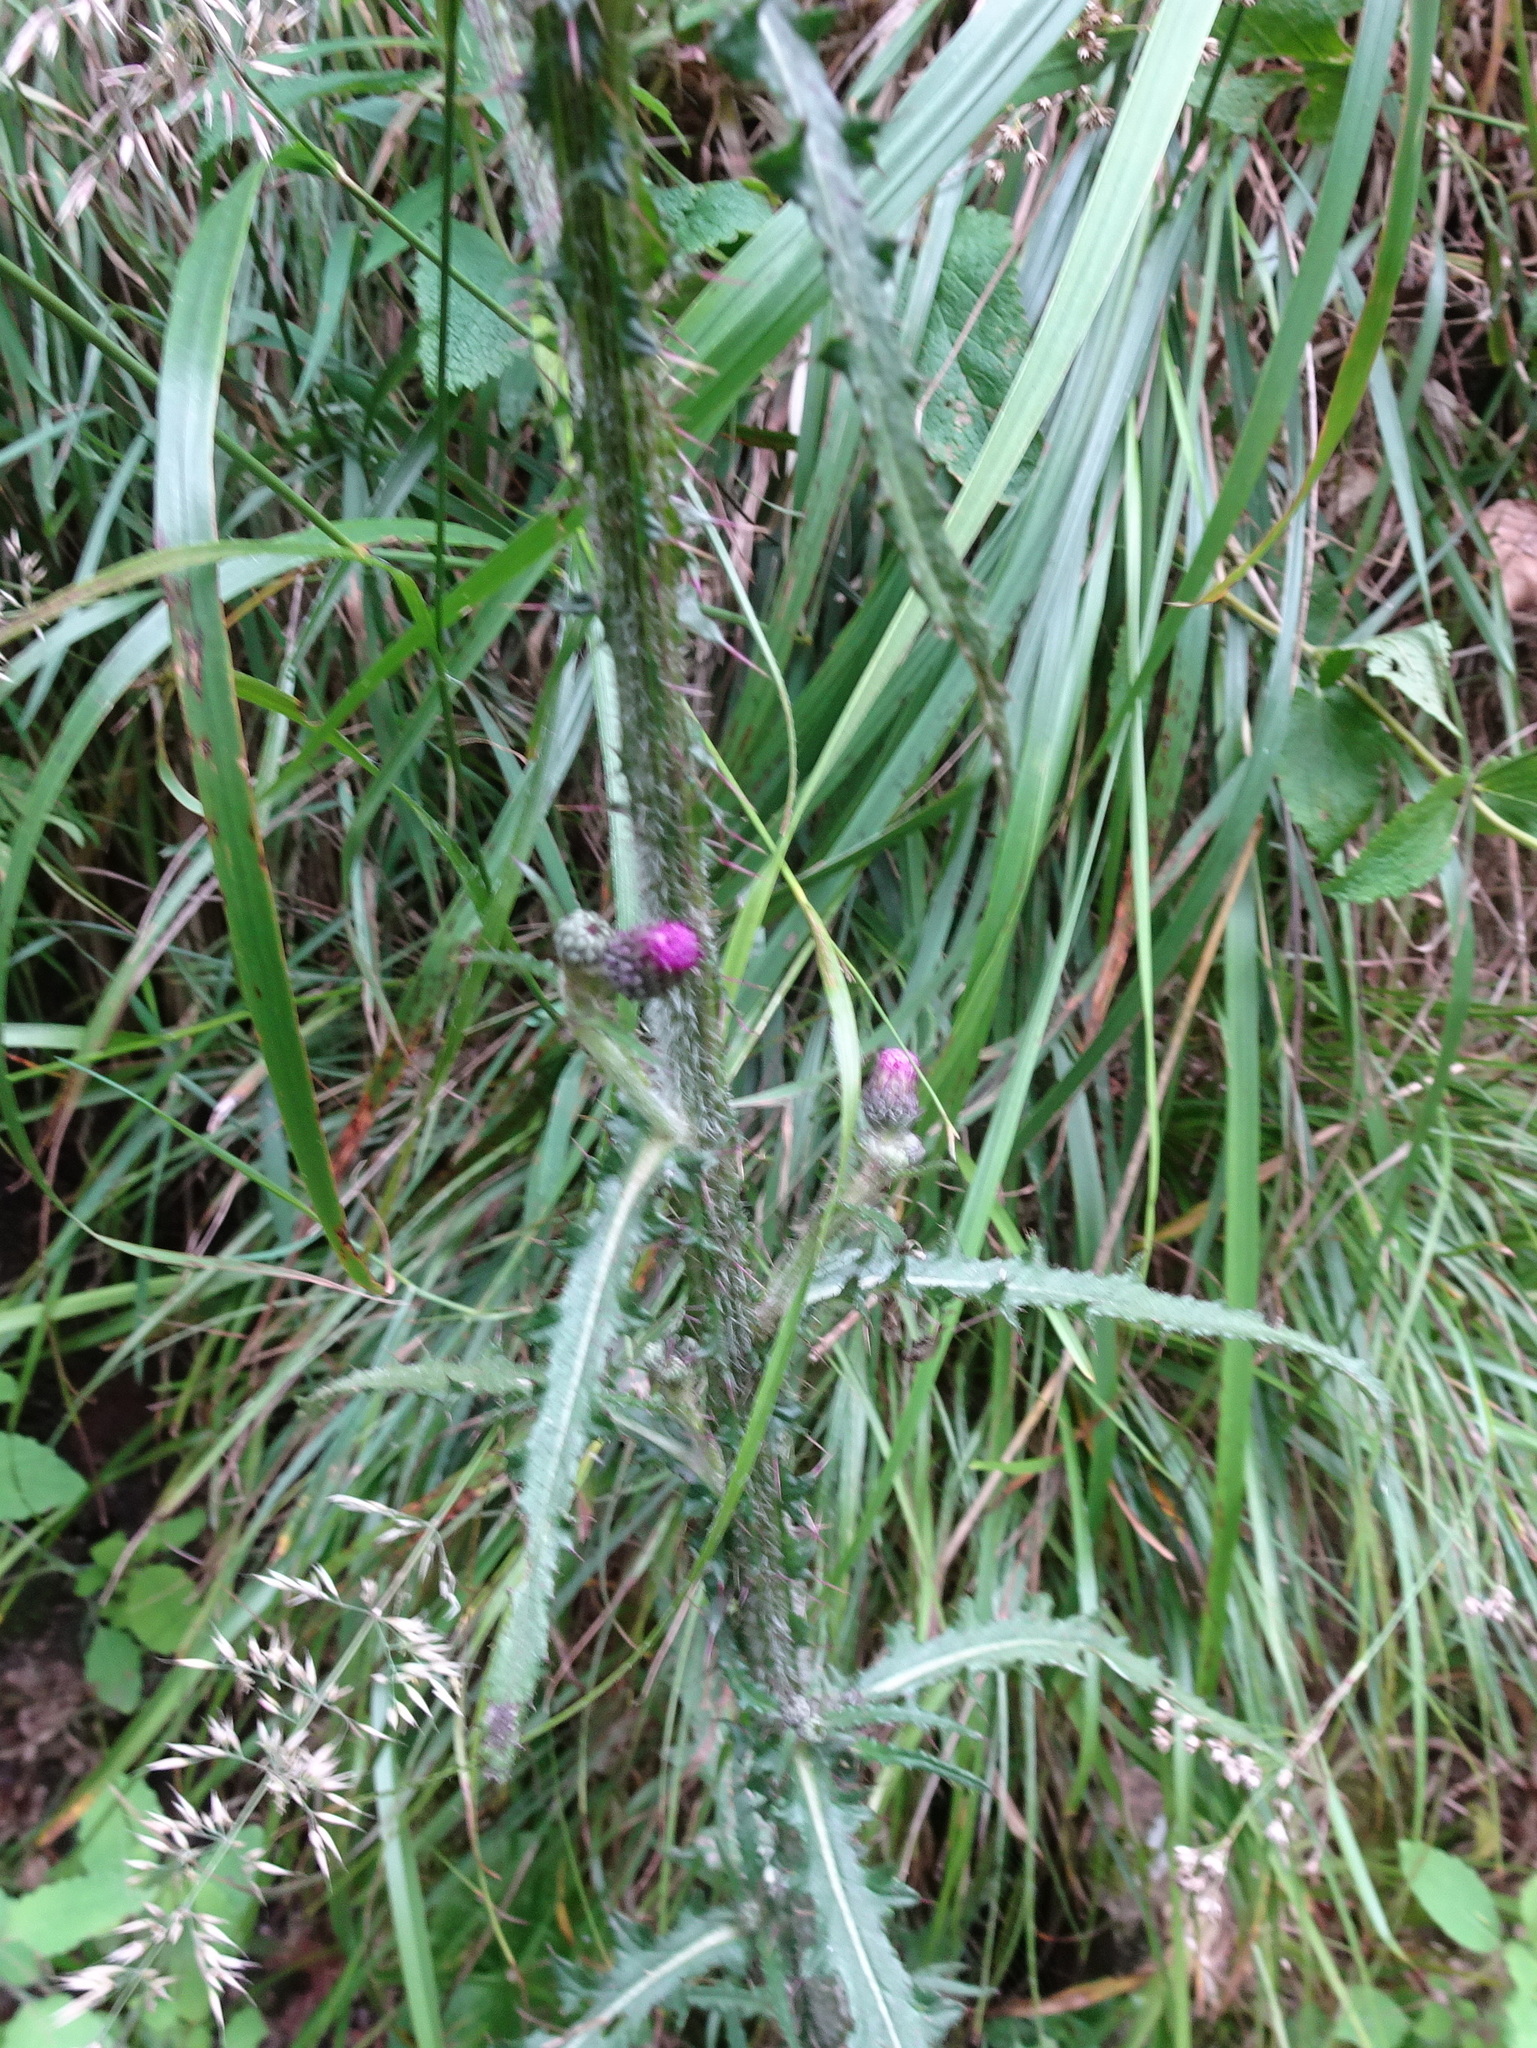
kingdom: Plantae
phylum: Tracheophyta
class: Magnoliopsida
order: Asterales
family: Asteraceae
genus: Cirsium
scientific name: Cirsium palustre
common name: Marsh thistle
